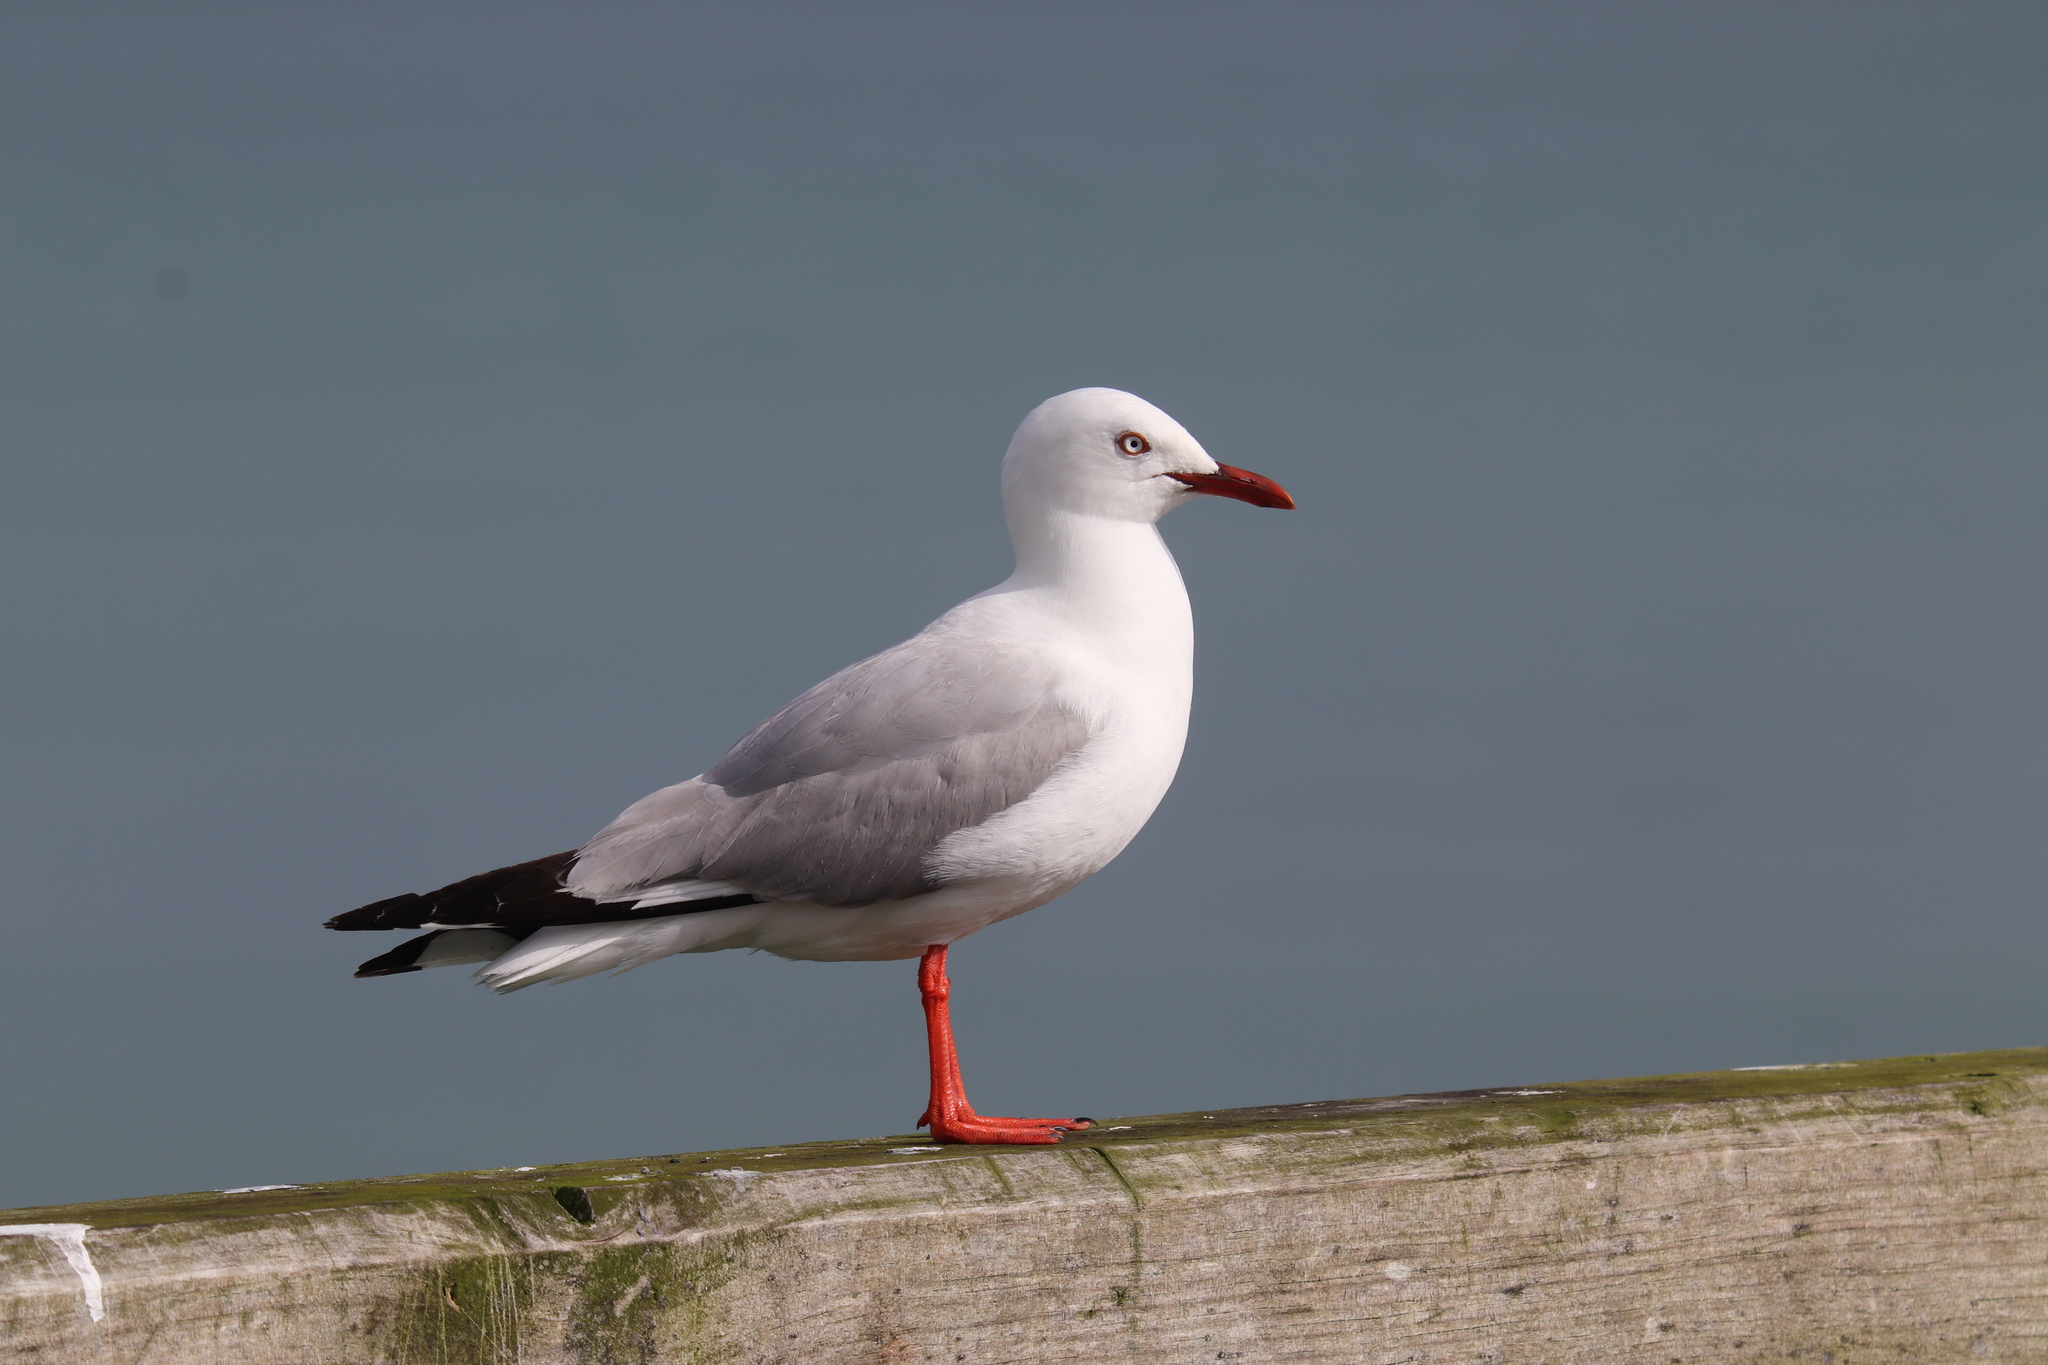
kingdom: Animalia
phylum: Chordata
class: Aves
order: Charadriiformes
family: Laridae
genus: Chroicocephalus
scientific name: Chroicocephalus novaehollandiae
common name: Silver gull
